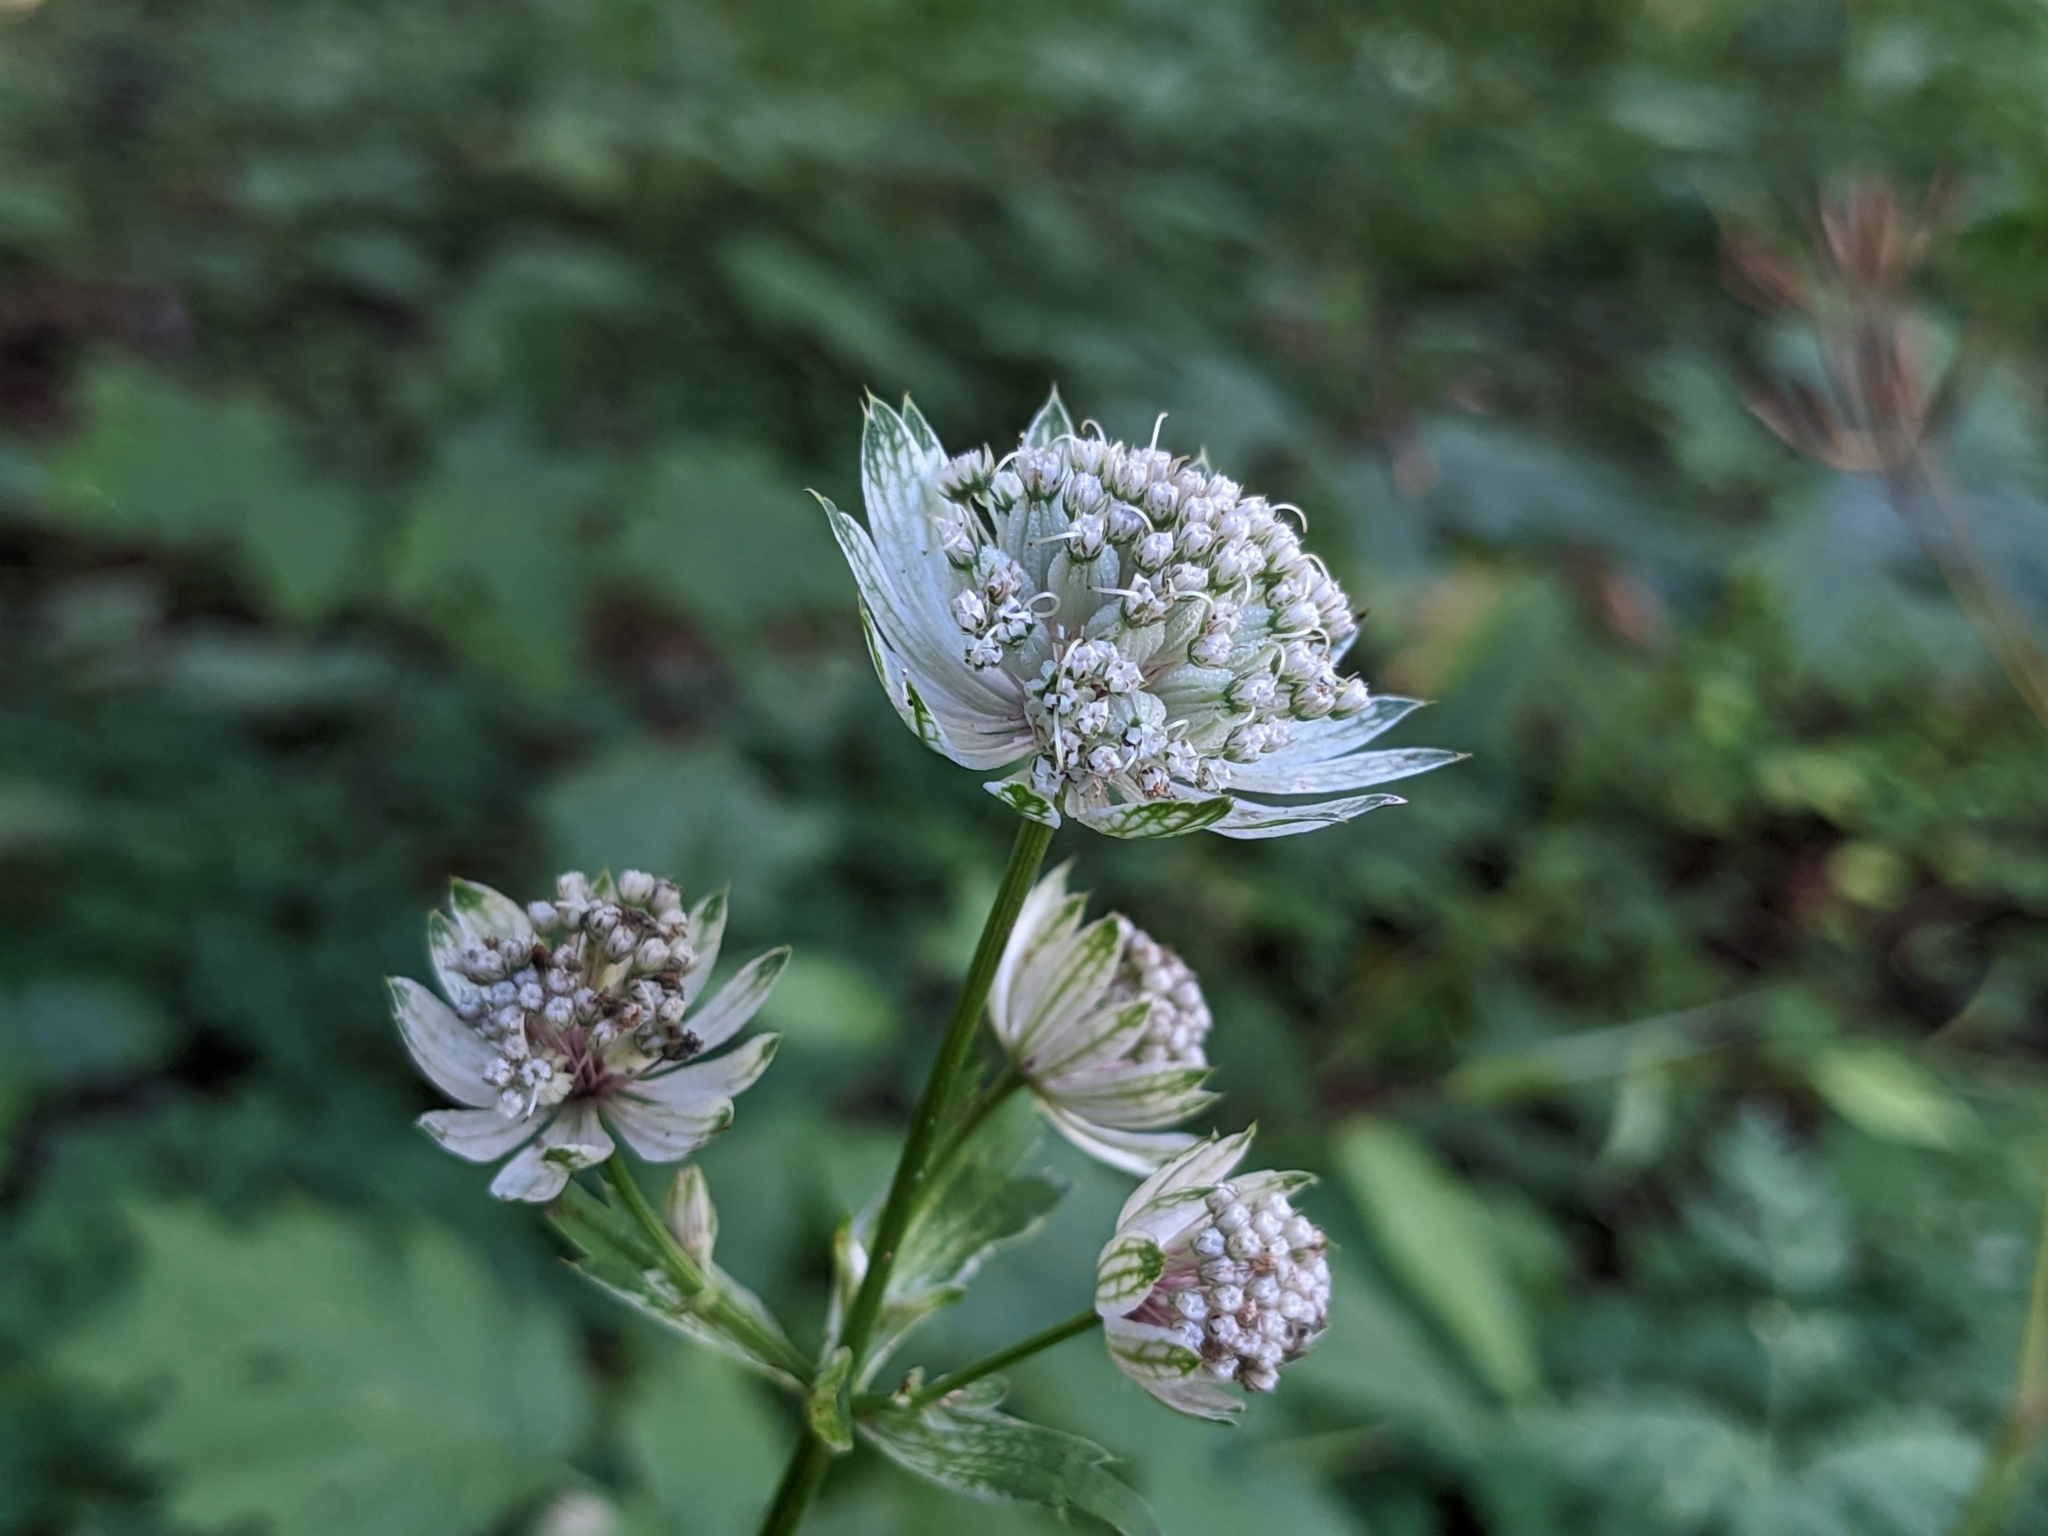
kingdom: Plantae
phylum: Tracheophyta
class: Magnoliopsida
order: Apiales
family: Apiaceae
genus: Astrantia
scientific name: Astrantia major
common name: Greater masterwort
